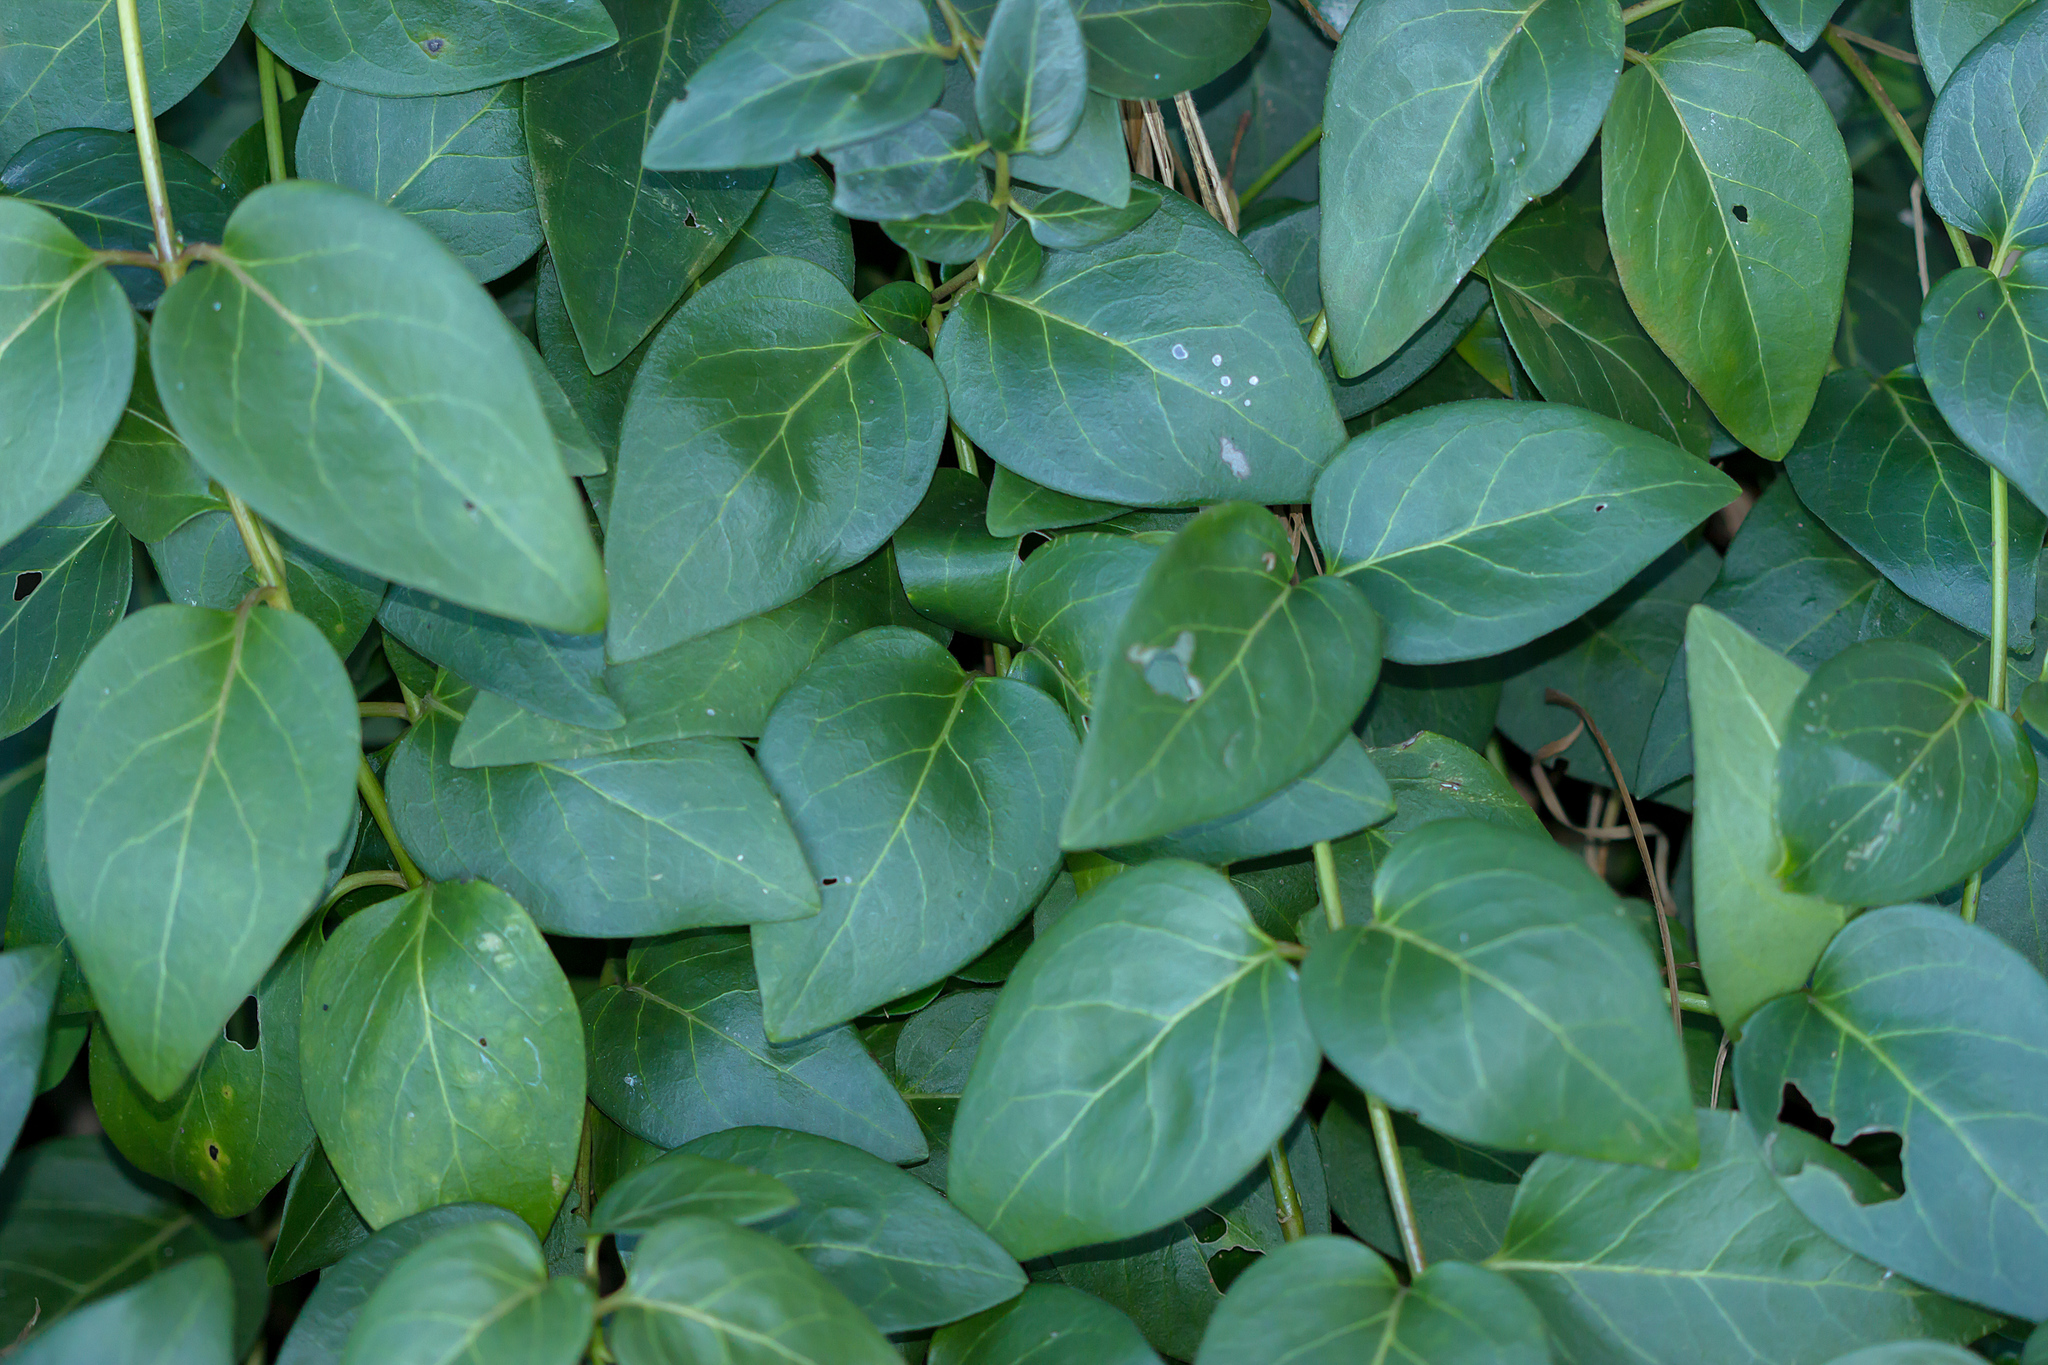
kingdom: Plantae
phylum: Tracheophyta
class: Magnoliopsida
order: Gentianales
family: Apocynaceae
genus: Vinca
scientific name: Vinca major
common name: Greater periwinkle
